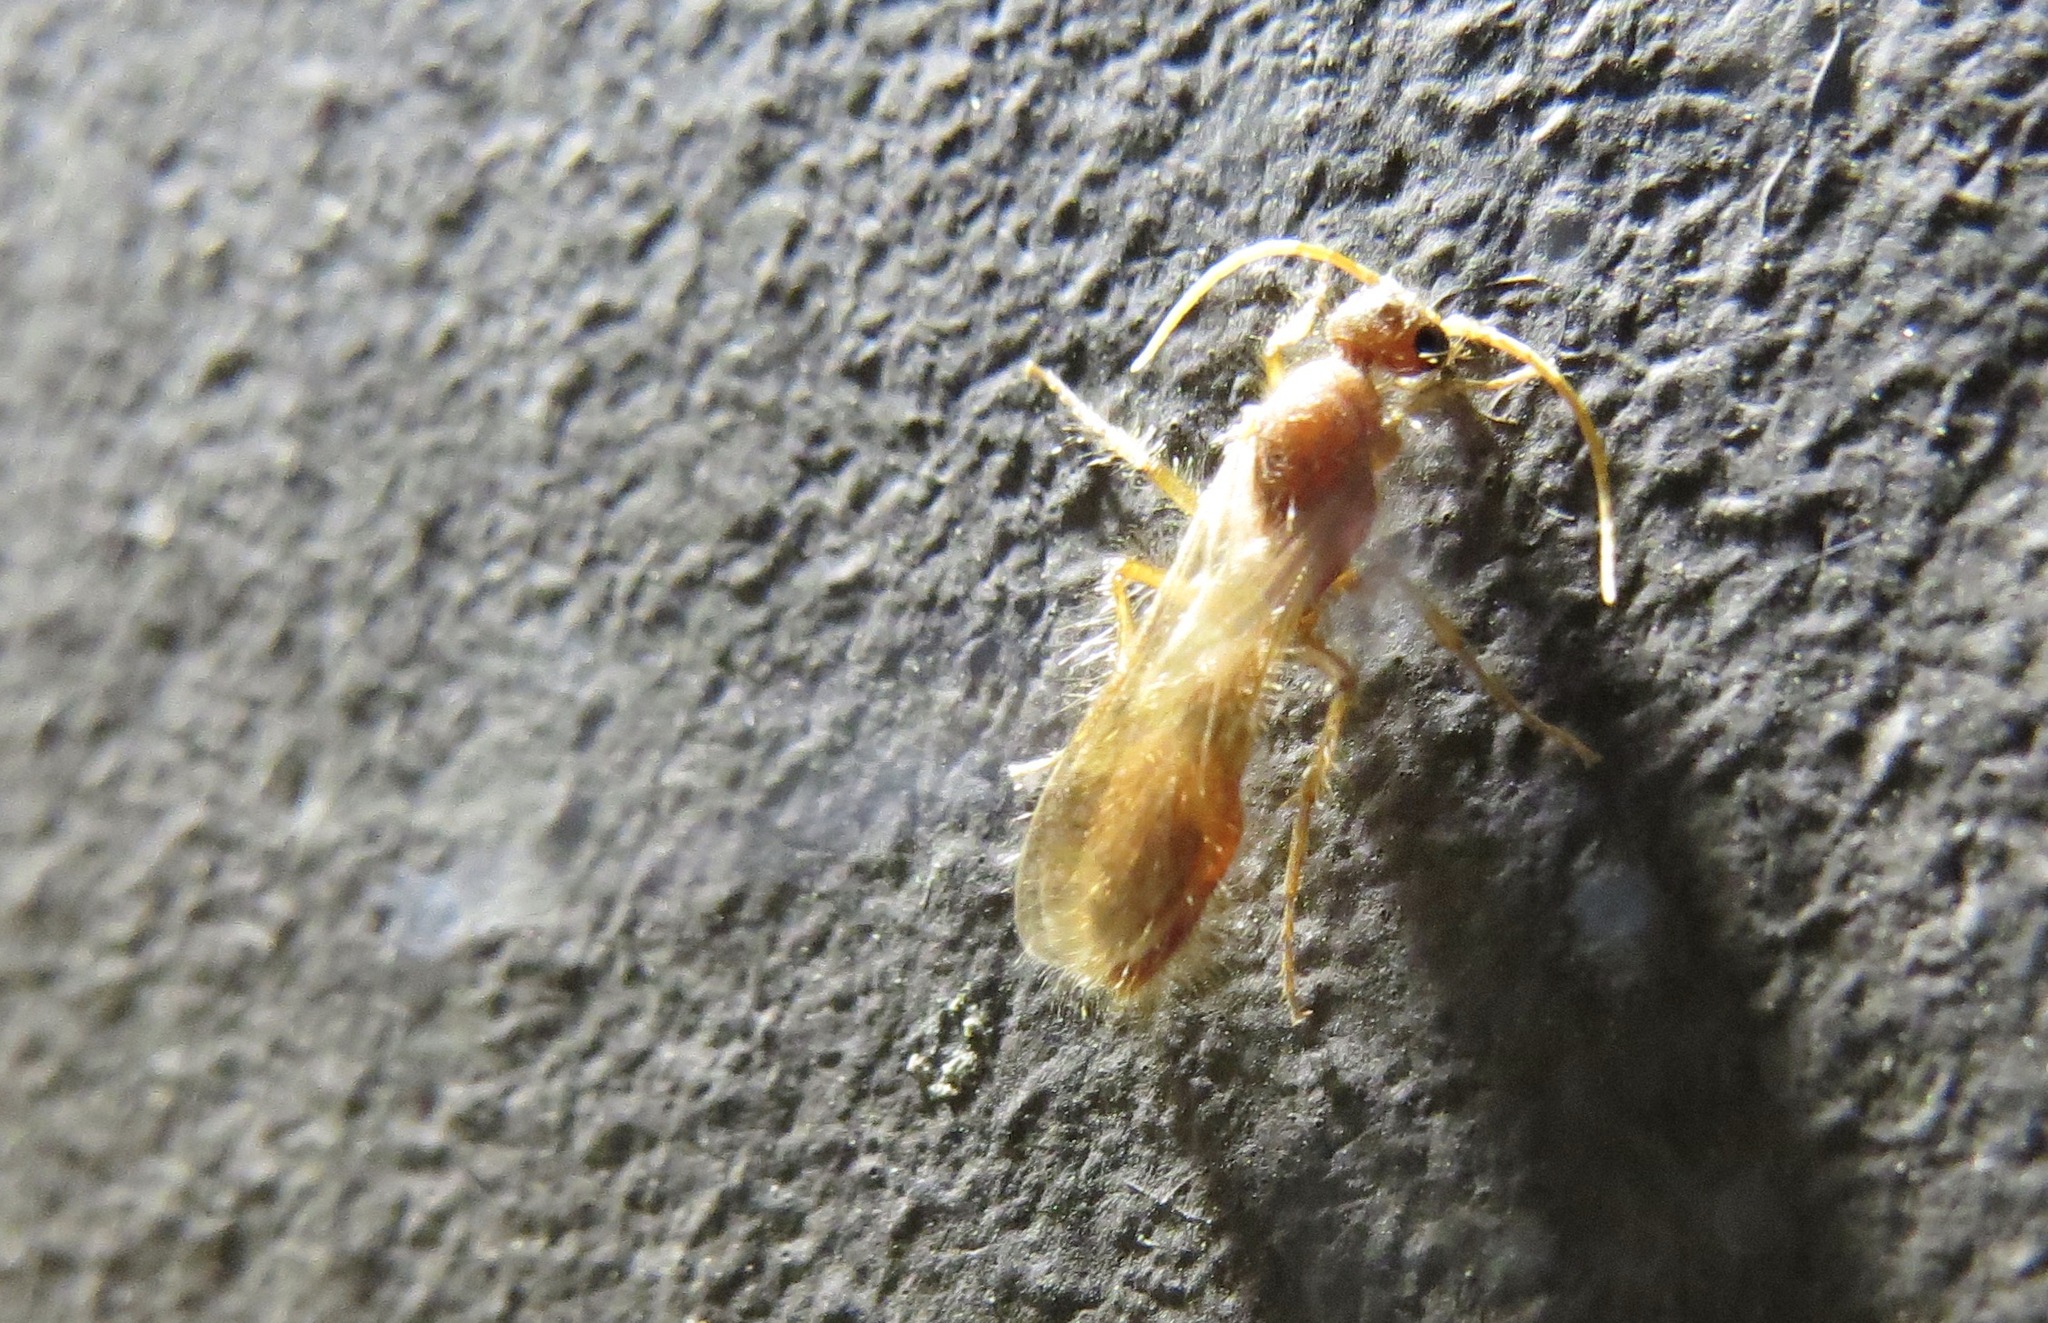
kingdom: Animalia
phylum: Arthropoda
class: Insecta
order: Hymenoptera
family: Mutillidae
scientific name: Mutillidae
